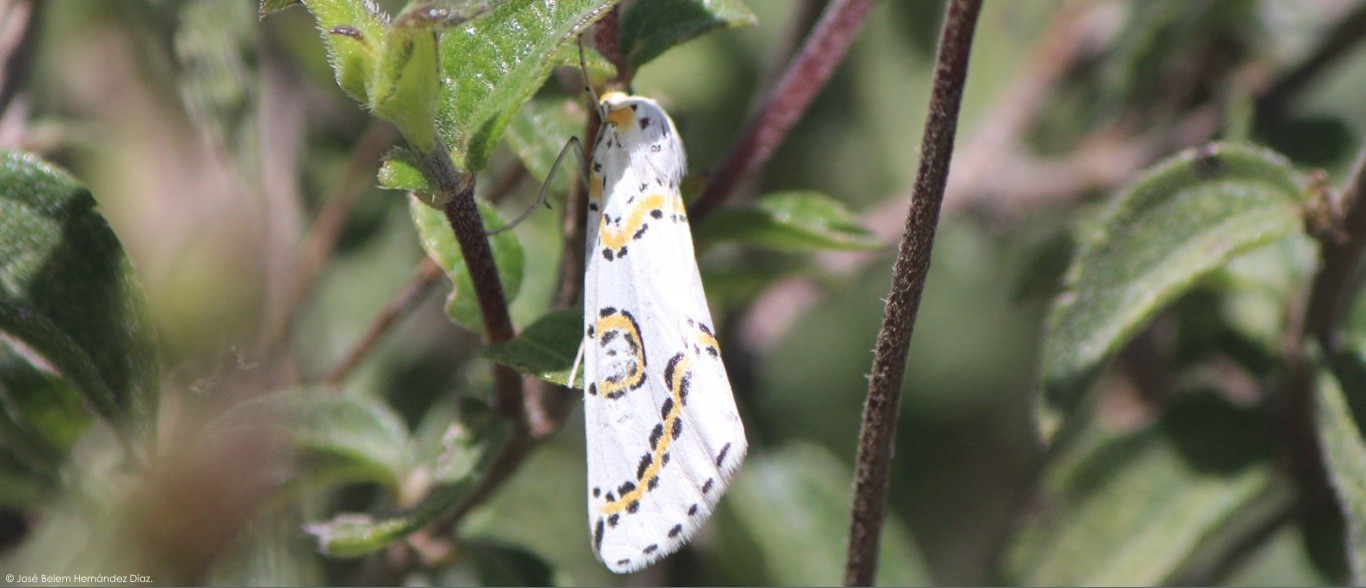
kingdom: Animalia
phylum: Arthropoda
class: Insecta
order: Lepidoptera
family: Geometridae
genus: Philtraea
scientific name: Philtraea mexicana
